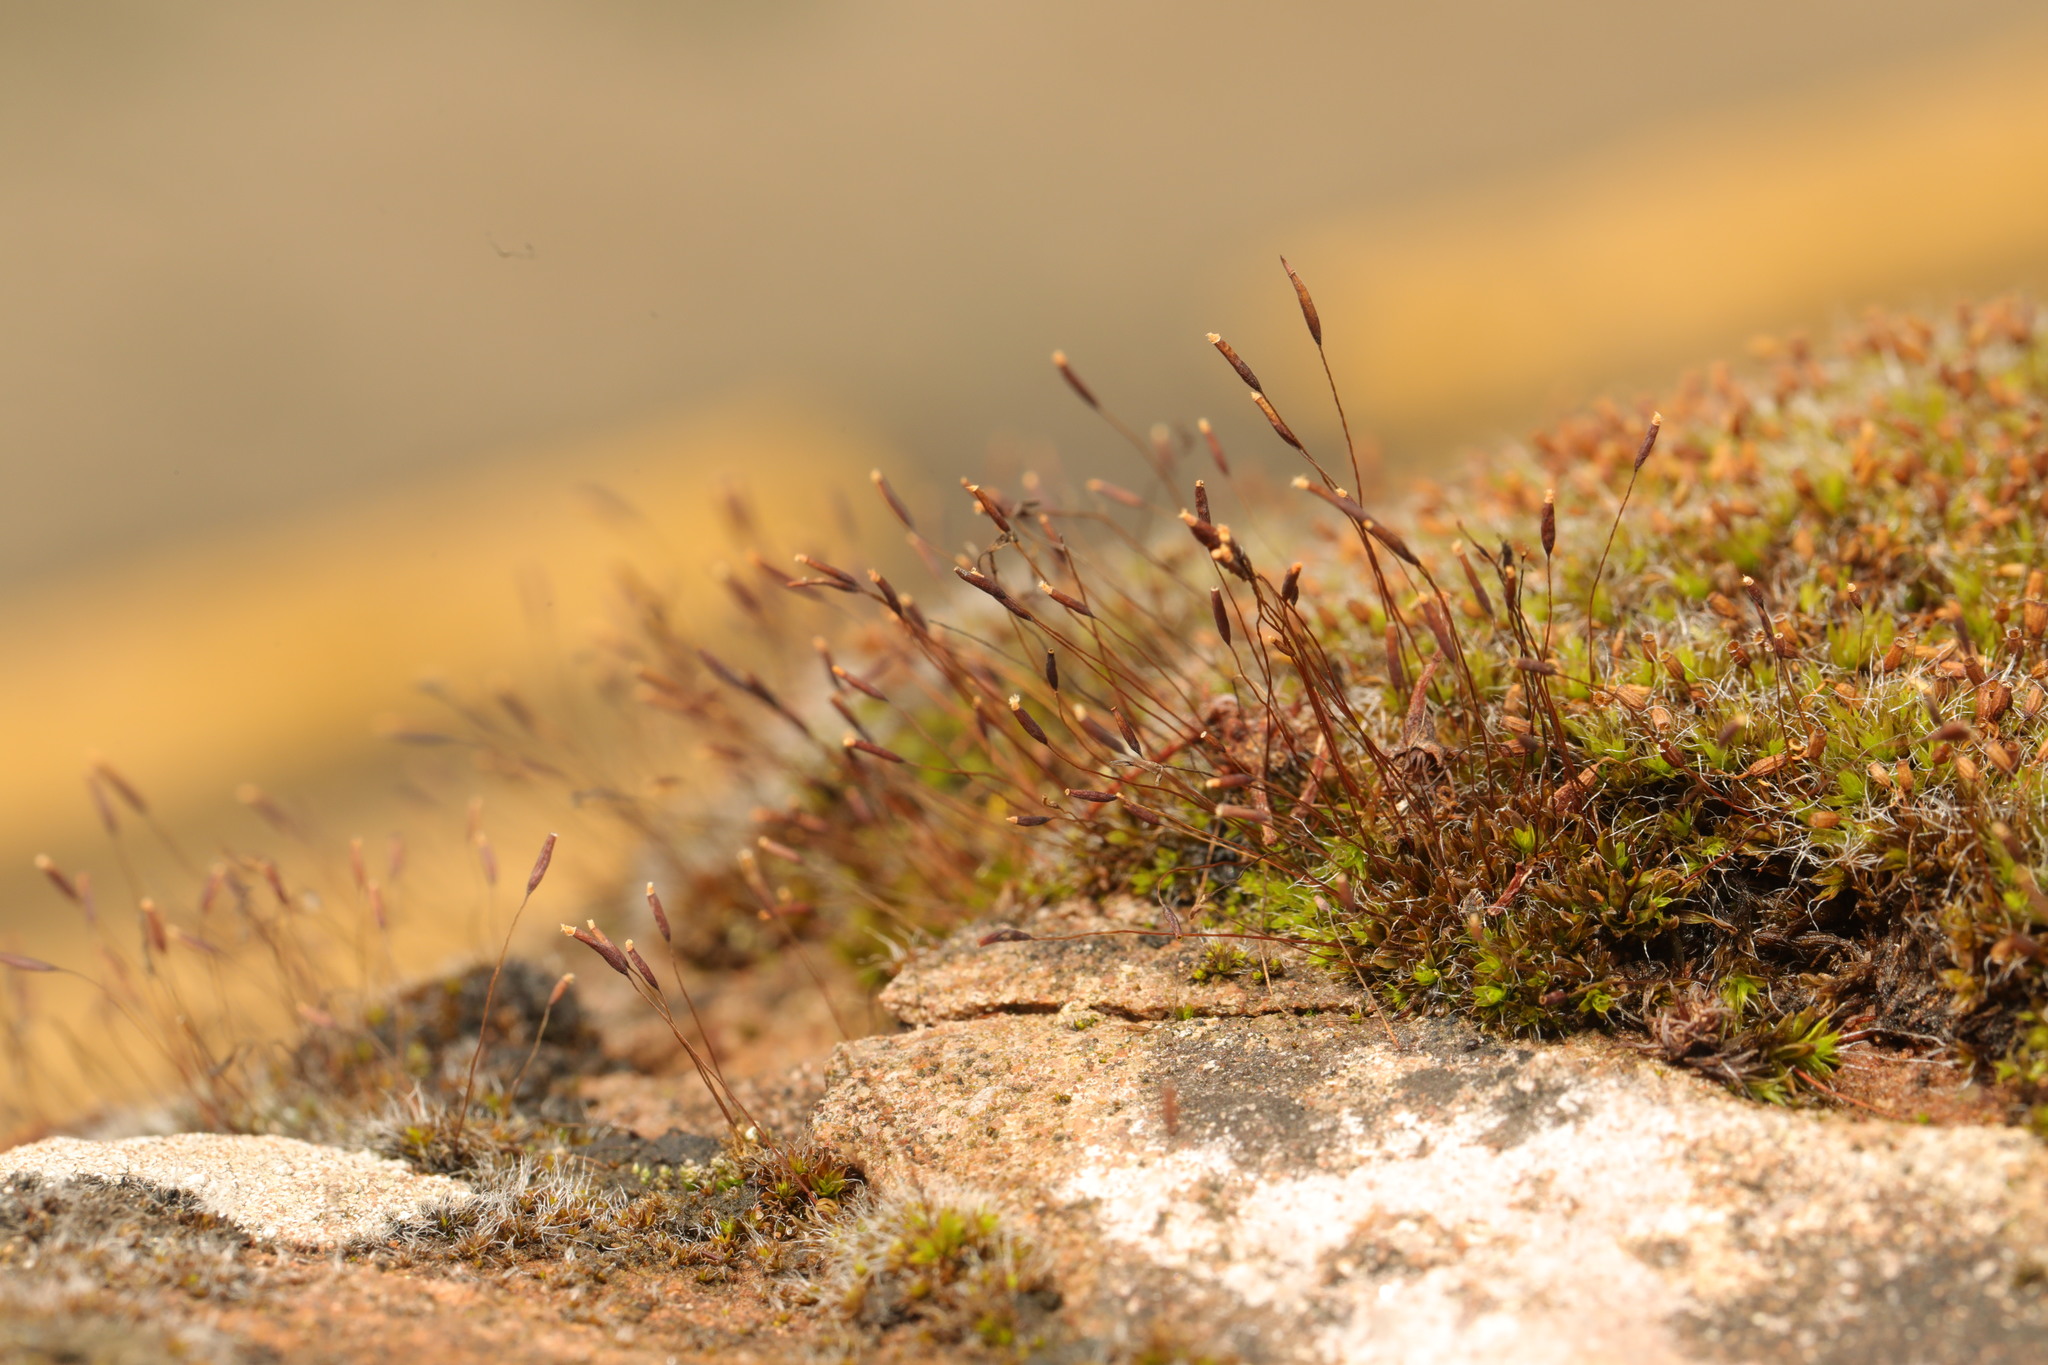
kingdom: Plantae
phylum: Bryophyta
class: Bryopsida
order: Pottiales
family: Pottiaceae
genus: Tortula
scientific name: Tortula muralis
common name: Wall screw-moss
